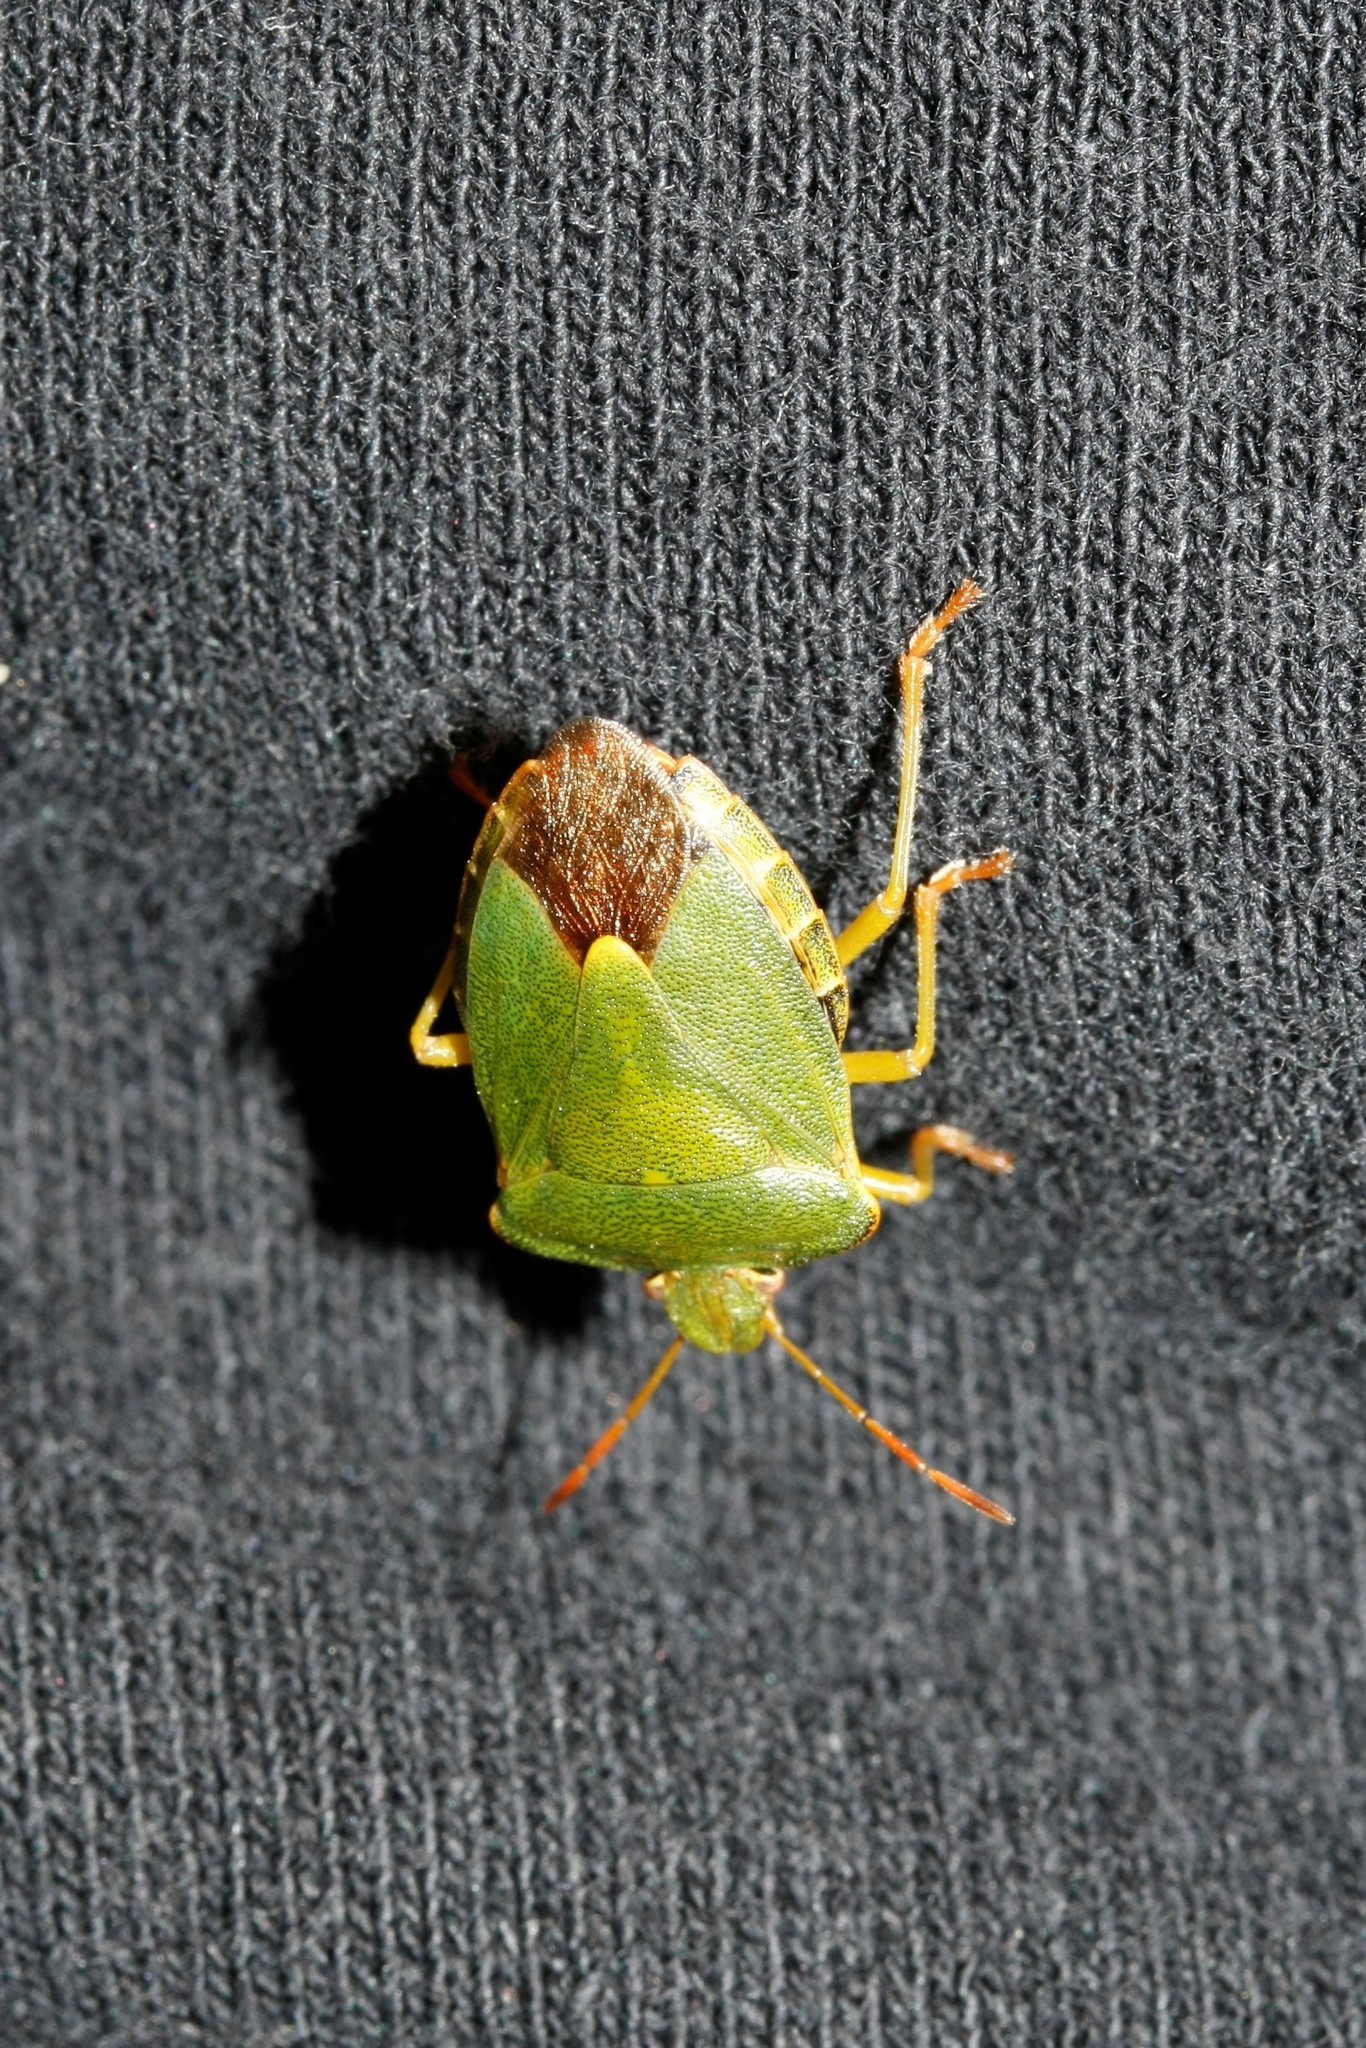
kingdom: Animalia
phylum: Arthropoda
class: Insecta
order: Hemiptera
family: Pentatomidae
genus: Palomena
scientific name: Palomena prasina
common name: Green shieldbug
